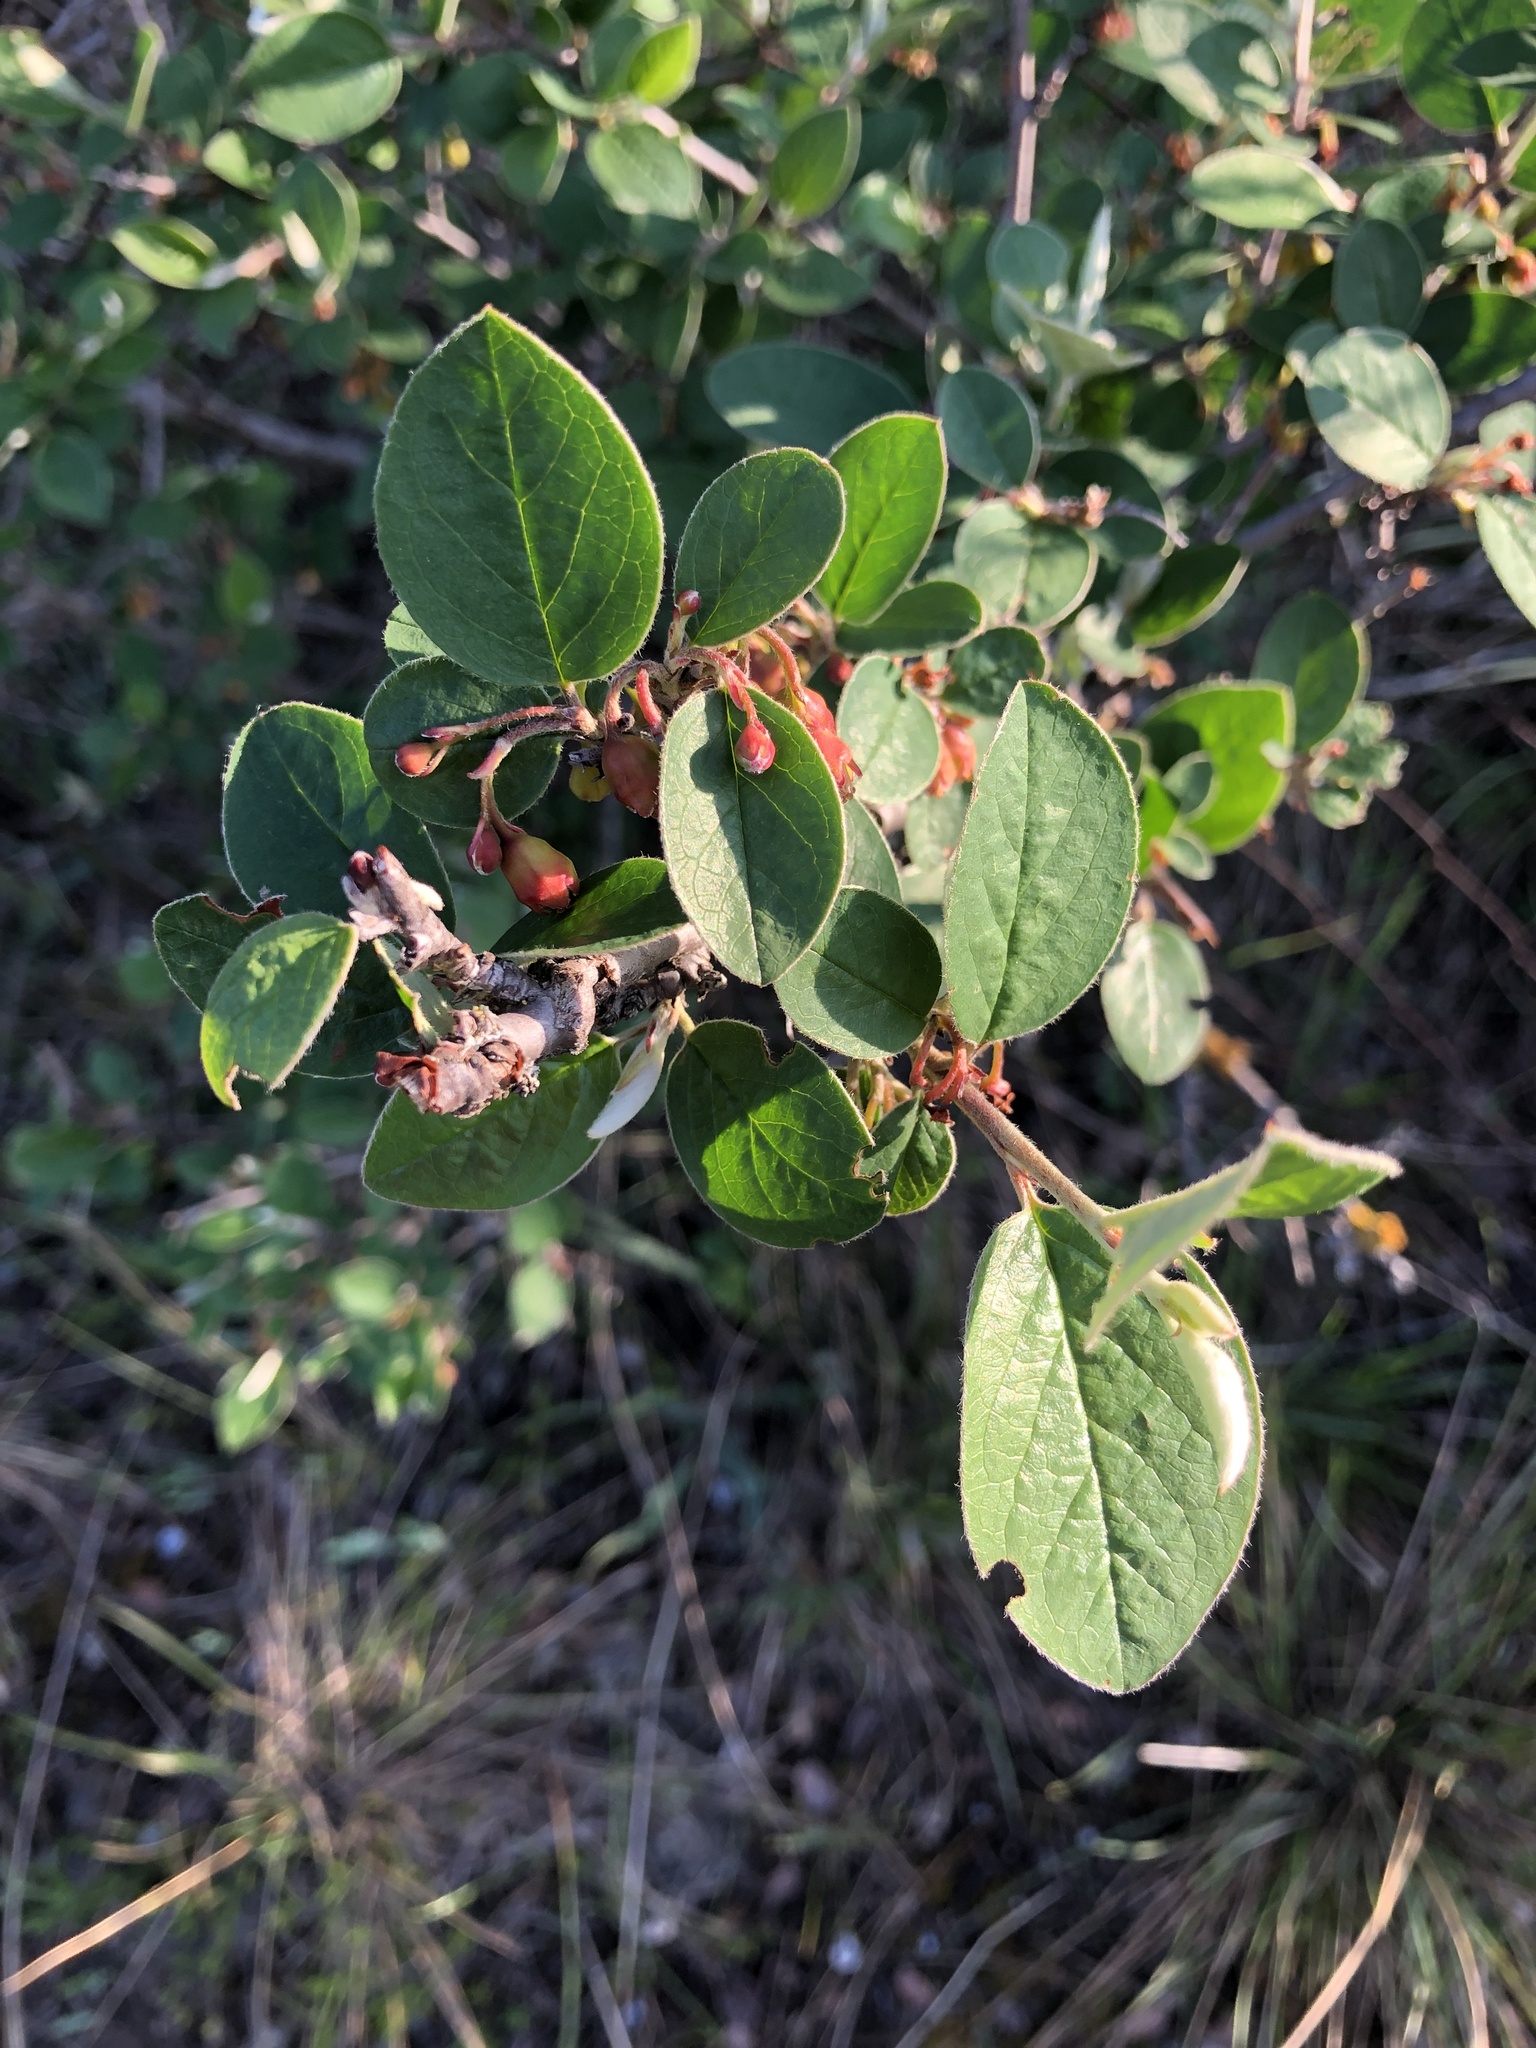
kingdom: Plantae
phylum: Tracheophyta
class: Magnoliopsida
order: Rosales
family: Rosaceae
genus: Cotoneaster
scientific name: Cotoneaster tomentosus
